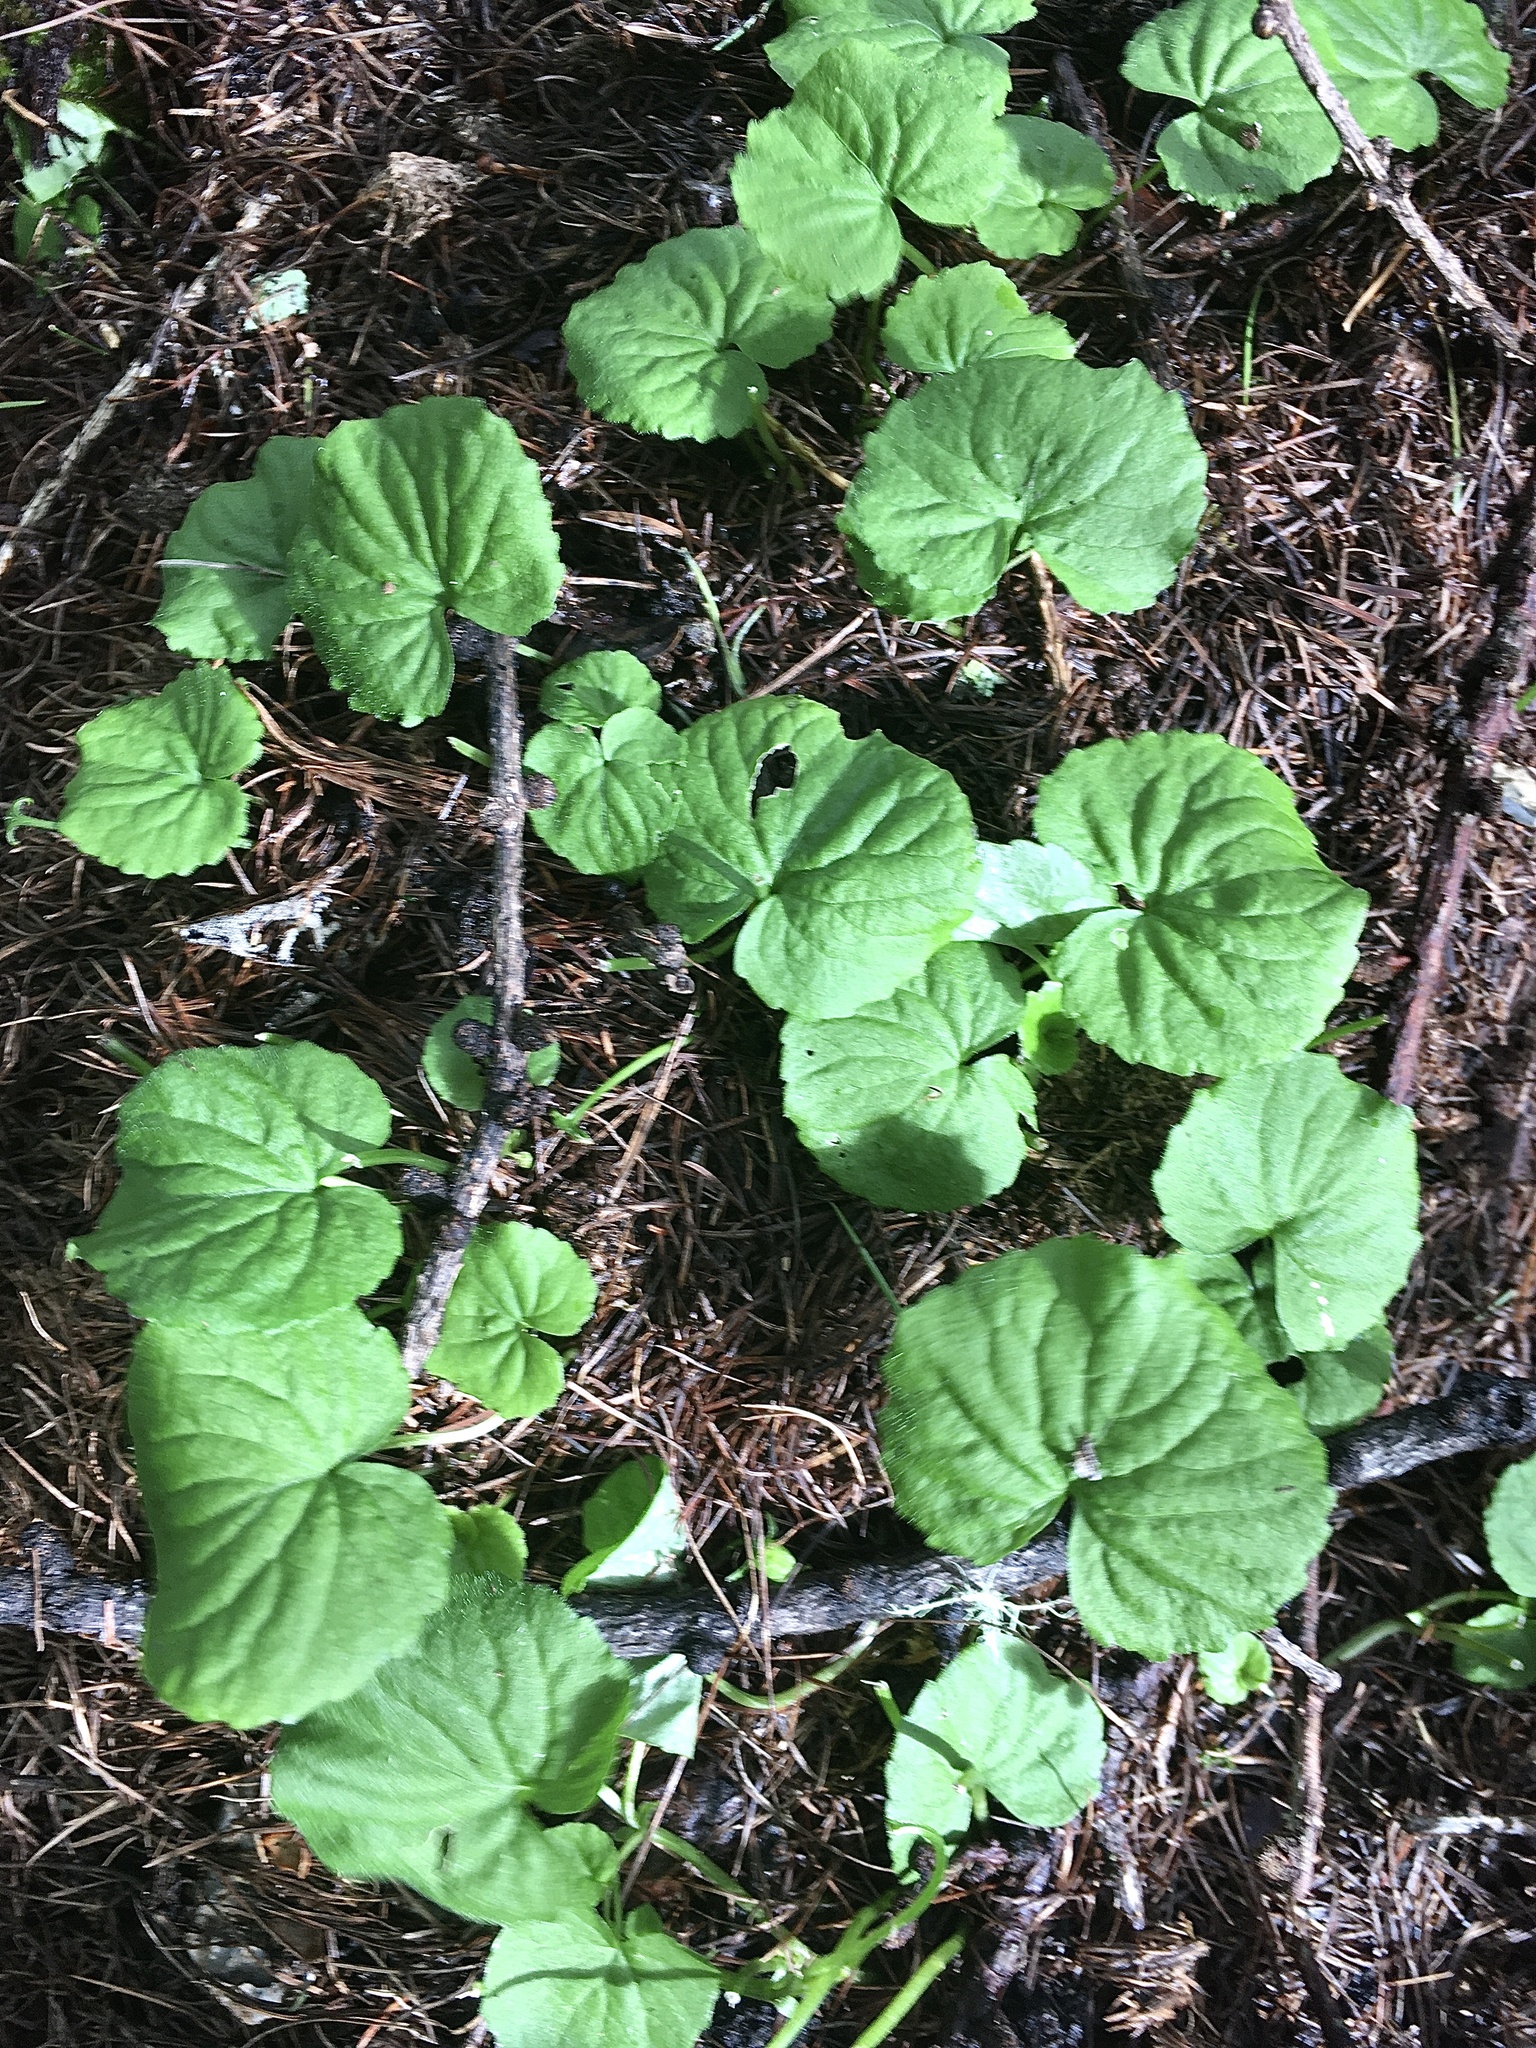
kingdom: Plantae
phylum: Tracheophyta
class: Magnoliopsida
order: Malpighiales
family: Violaceae
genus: Viola
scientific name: Viola biflora
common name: Alpine yellow violet
